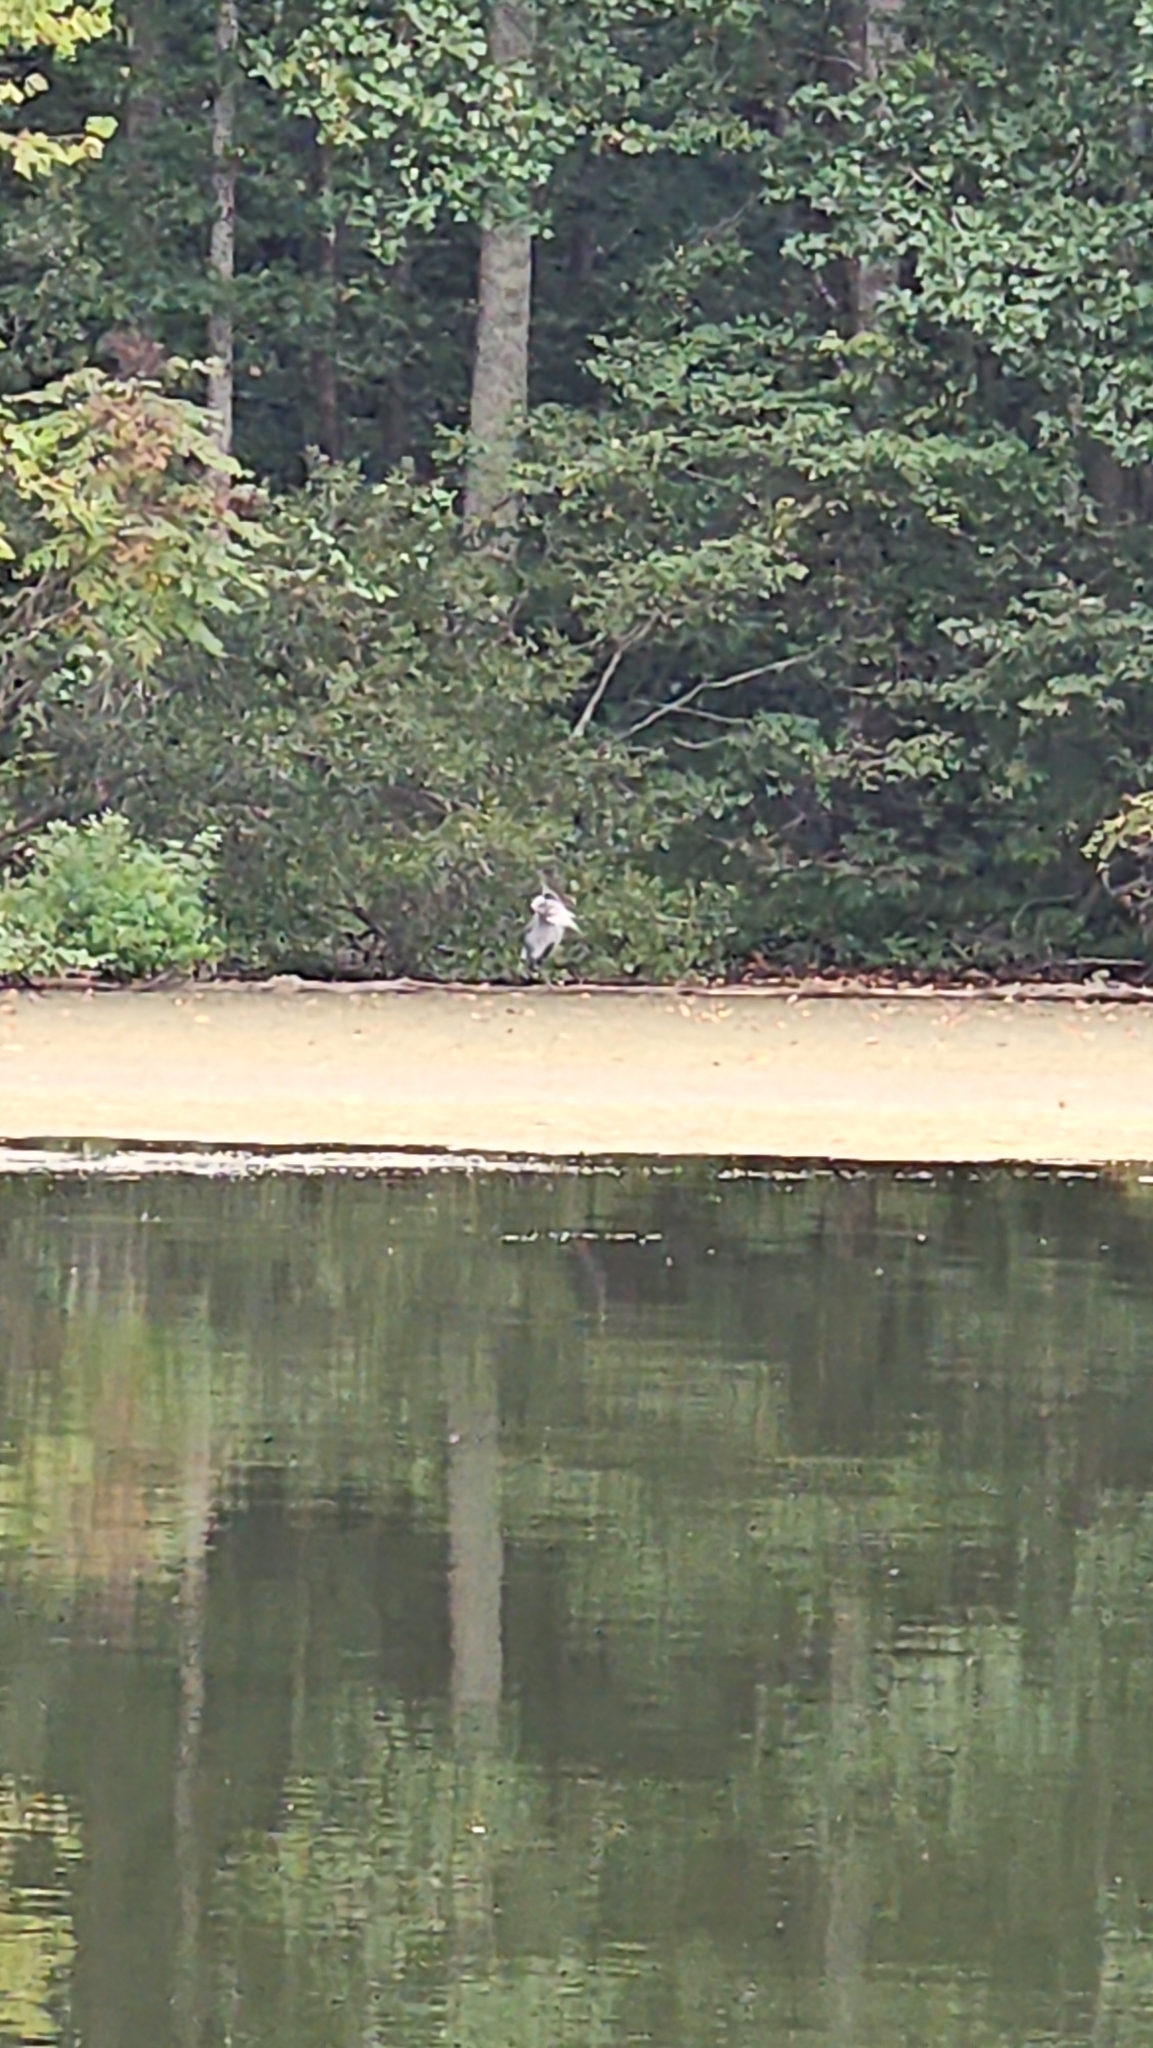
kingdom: Animalia
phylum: Chordata
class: Aves
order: Pelecaniformes
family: Ardeidae
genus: Ardea
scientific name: Ardea herodias
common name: Great blue heron
